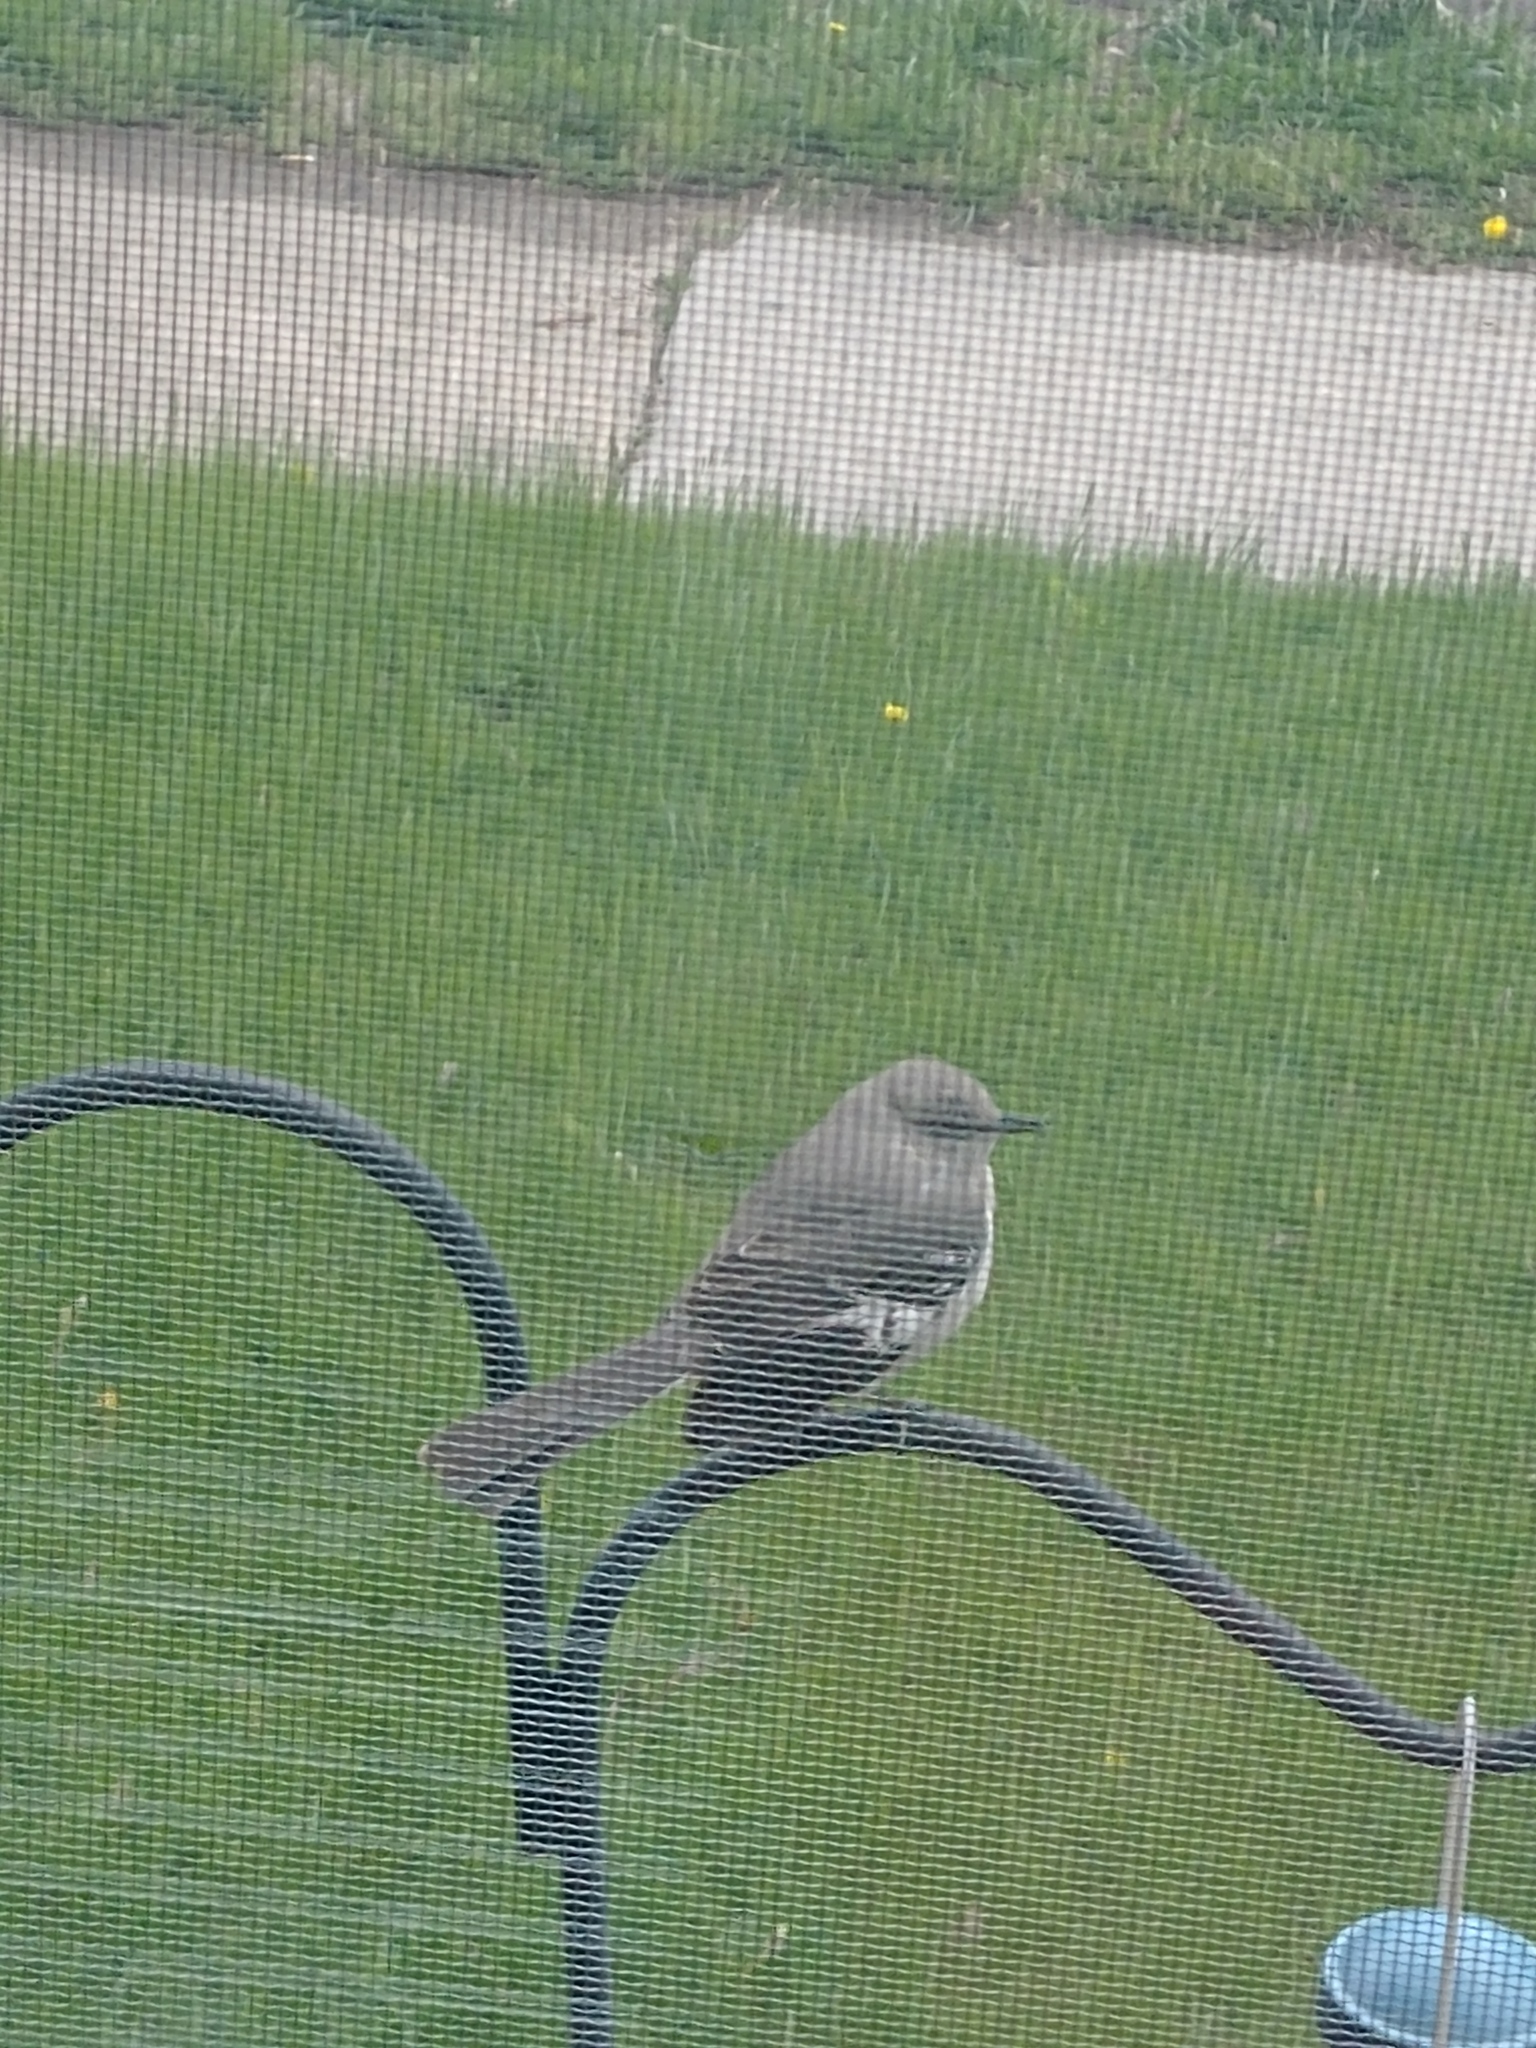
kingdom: Animalia
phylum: Chordata
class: Aves
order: Passeriformes
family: Mimidae
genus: Mimus
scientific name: Mimus polyglottos
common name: Northern mockingbird
